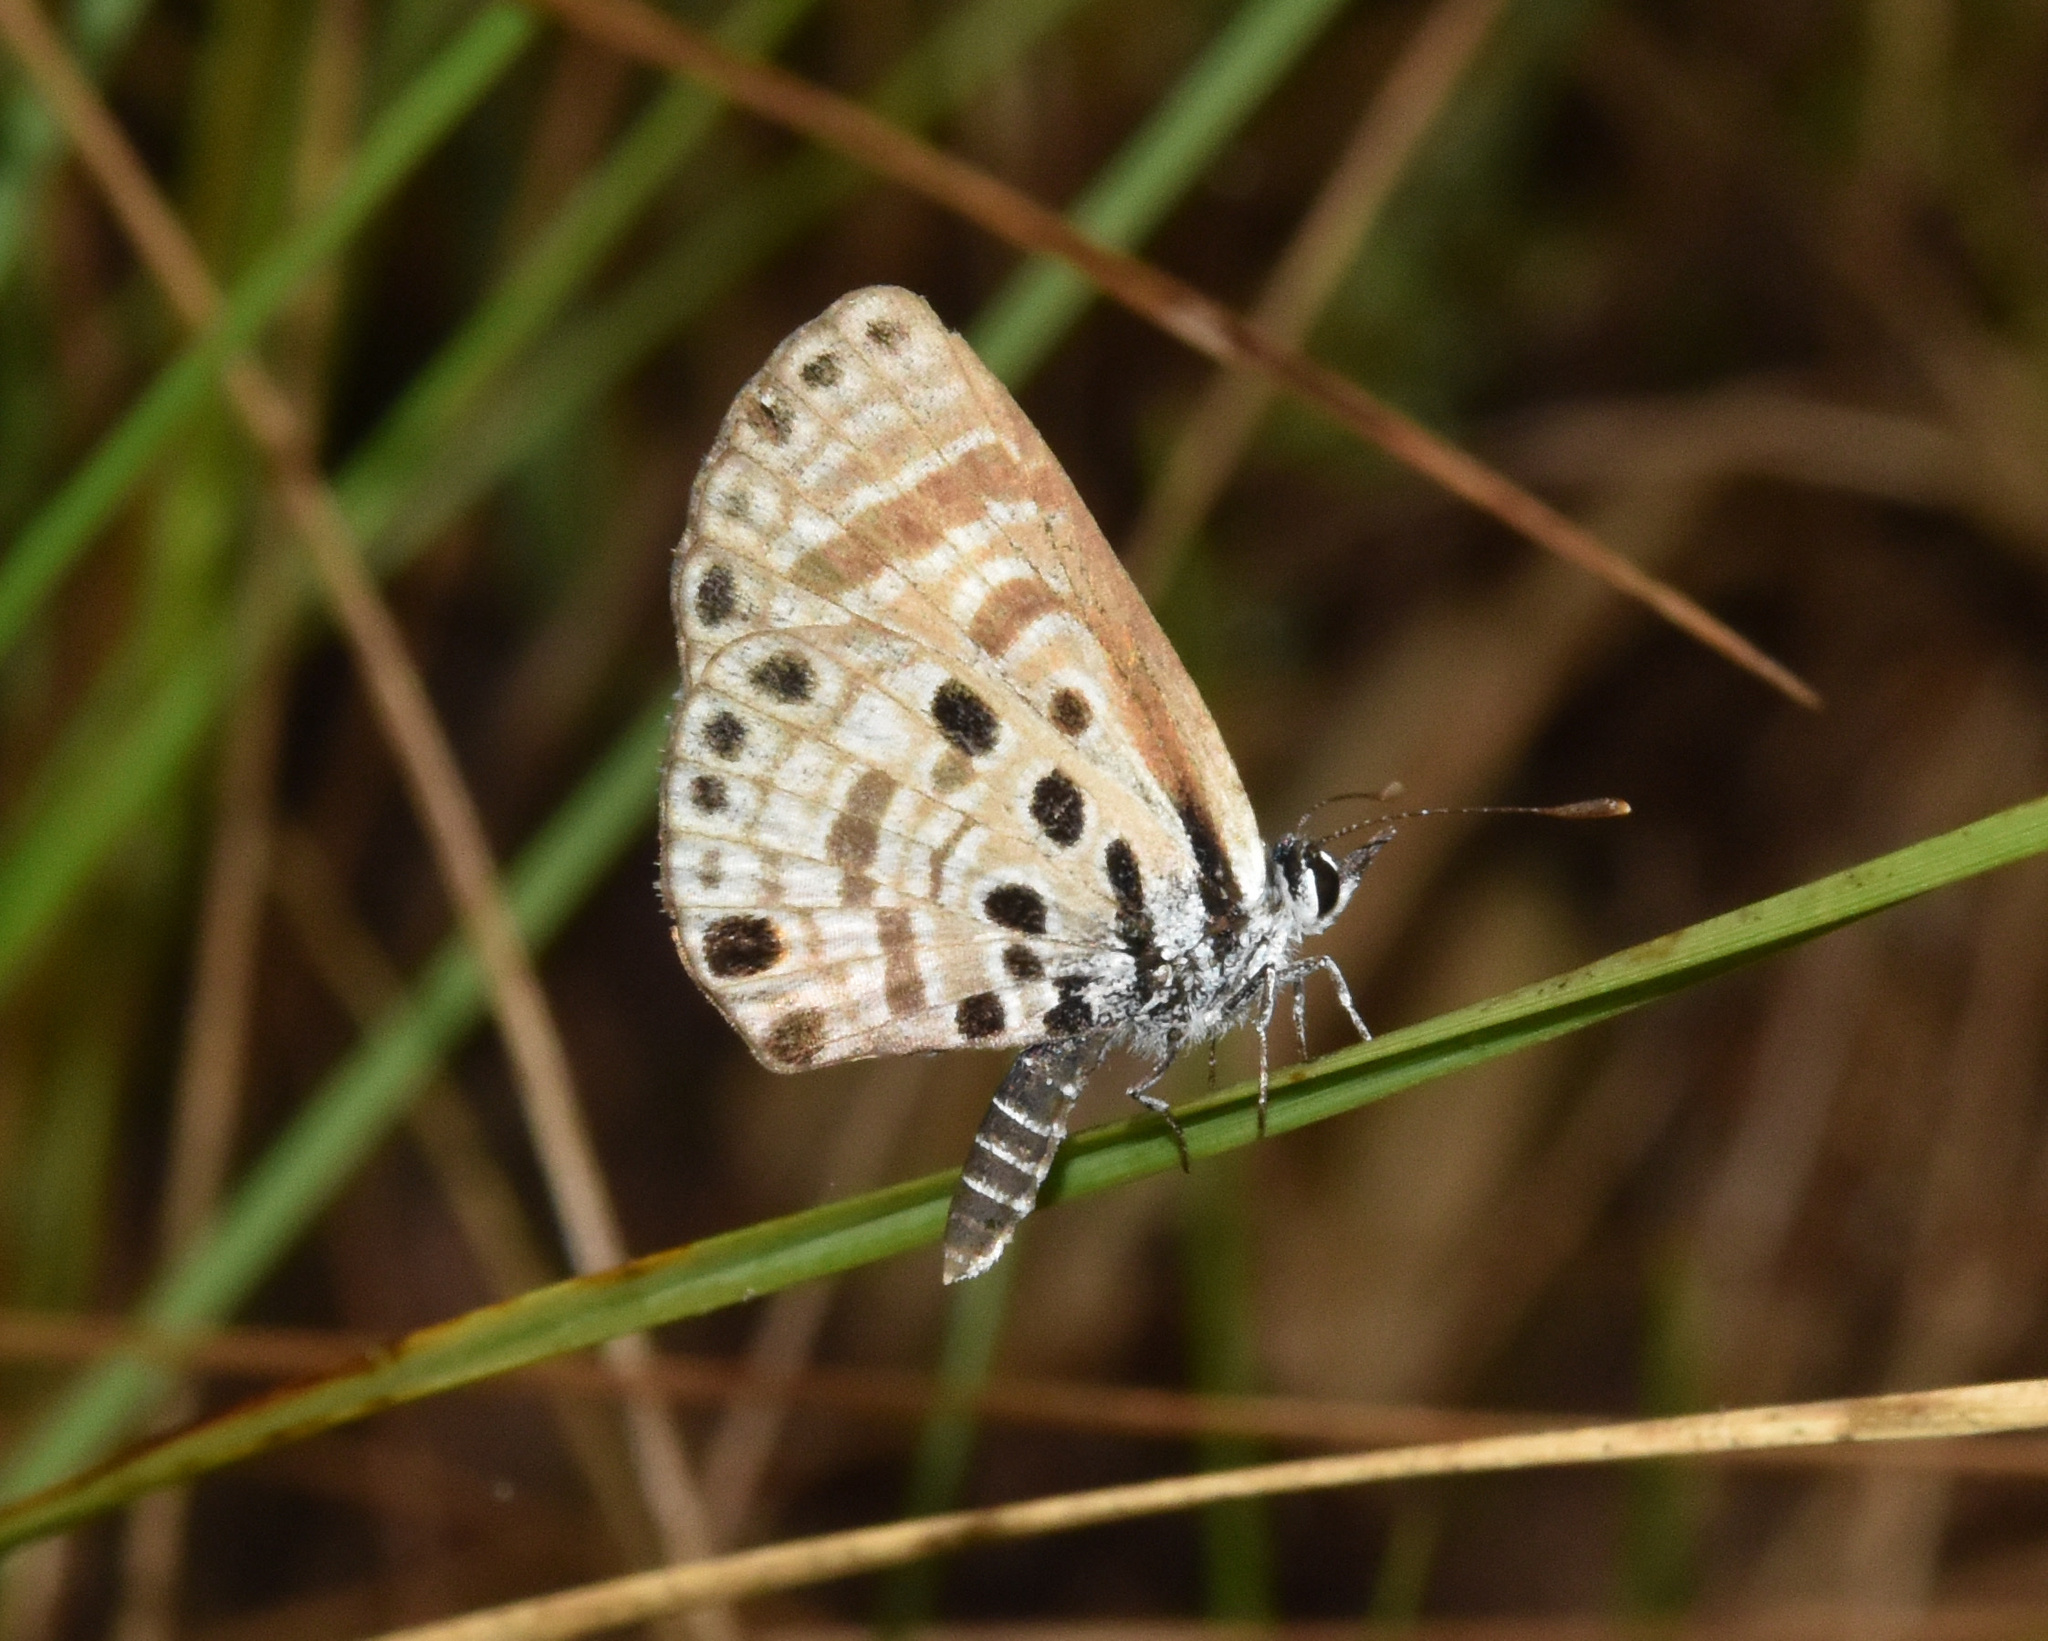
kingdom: Animalia
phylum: Arthropoda
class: Insecta
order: Lepidoptera
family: Lycaenidae
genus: Azanus
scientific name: Azanus jesous
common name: African babul blue
